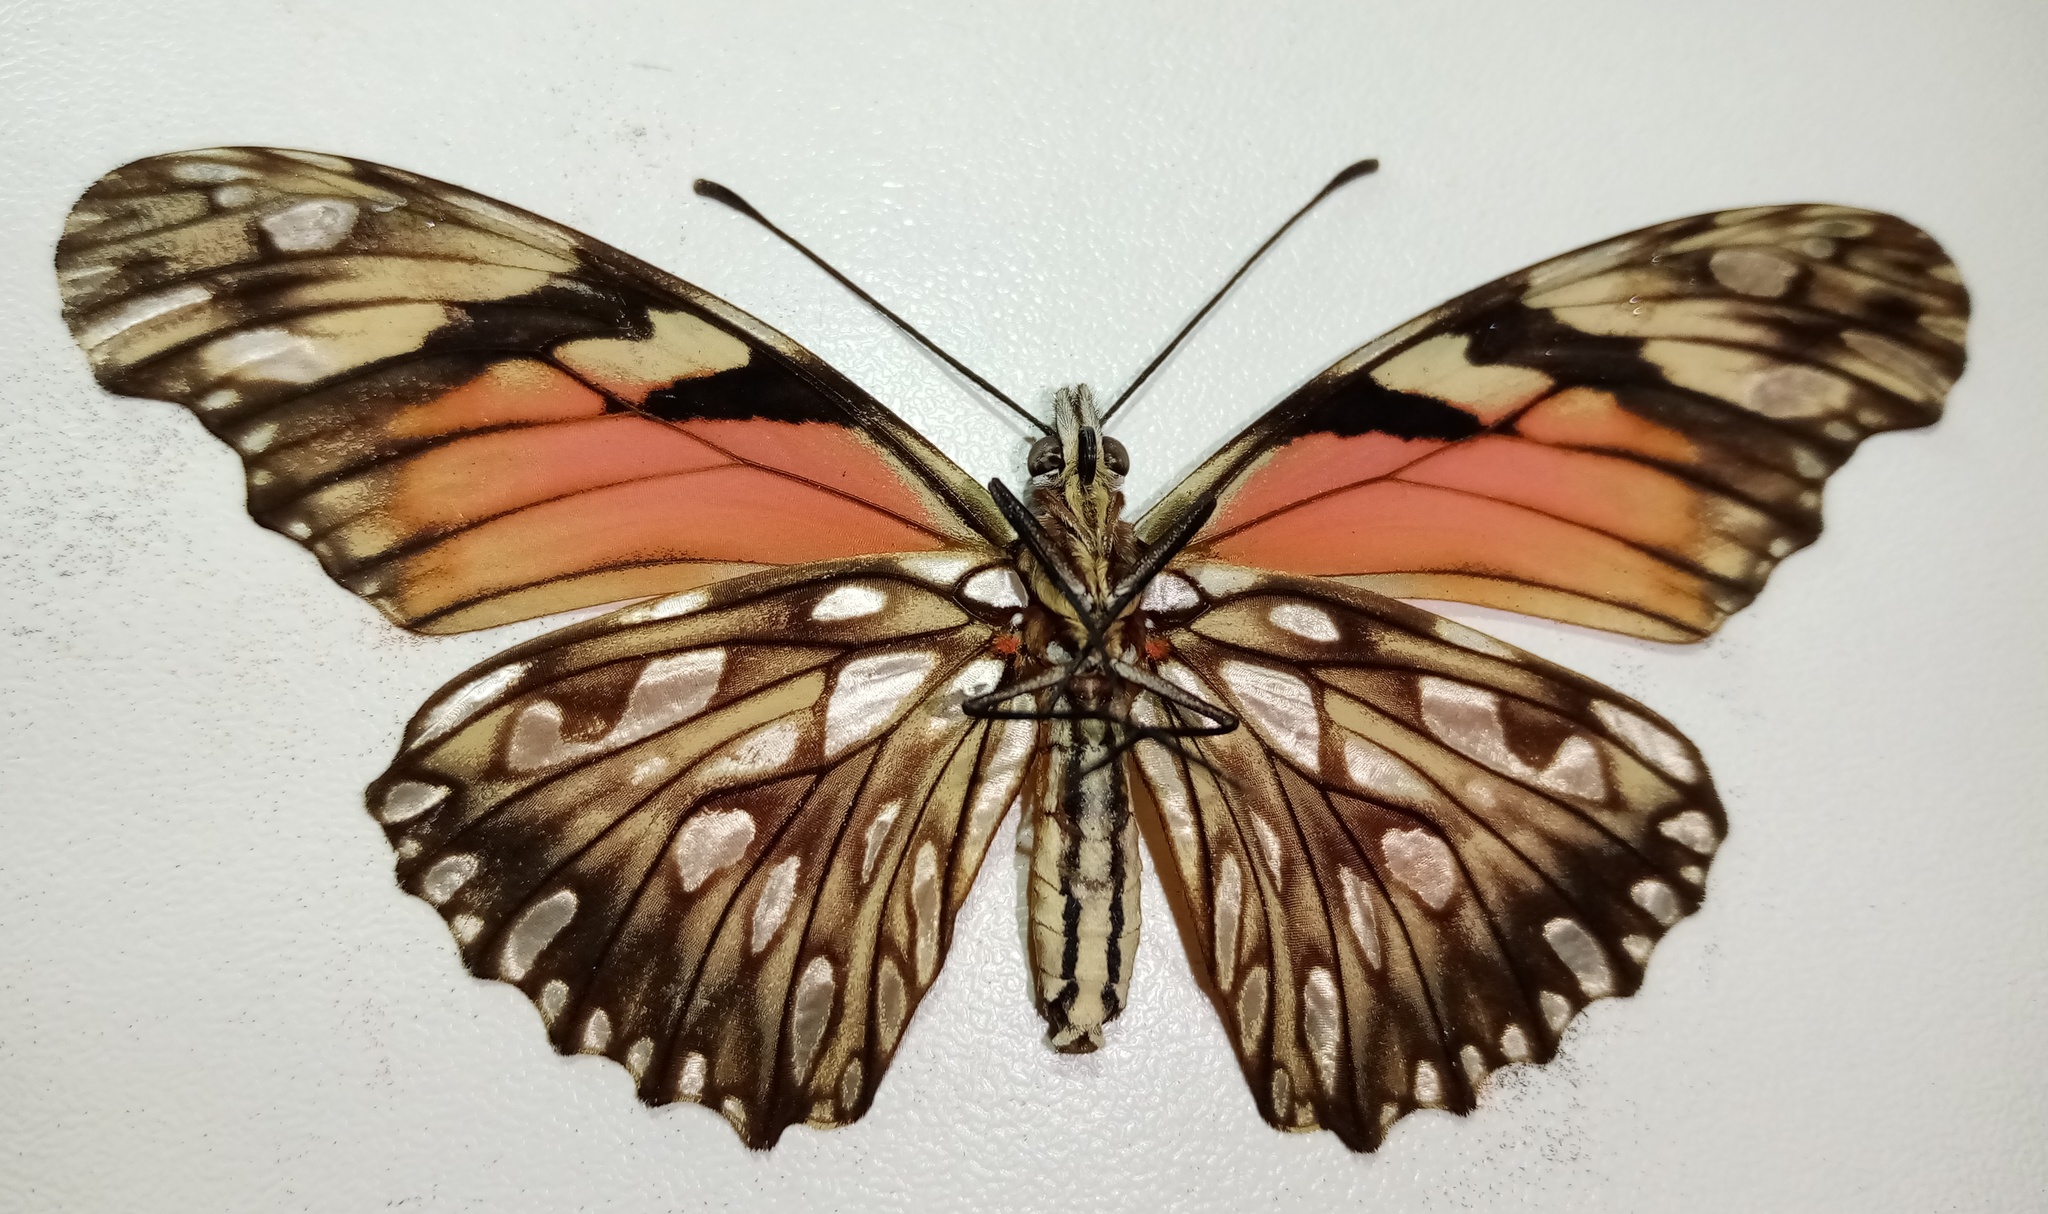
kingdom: Animalia
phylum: Arthropoda
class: Insecta
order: Lepidoptera
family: Nymphalidae
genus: Dione
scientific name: Dione juno
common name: Juno silverspot
